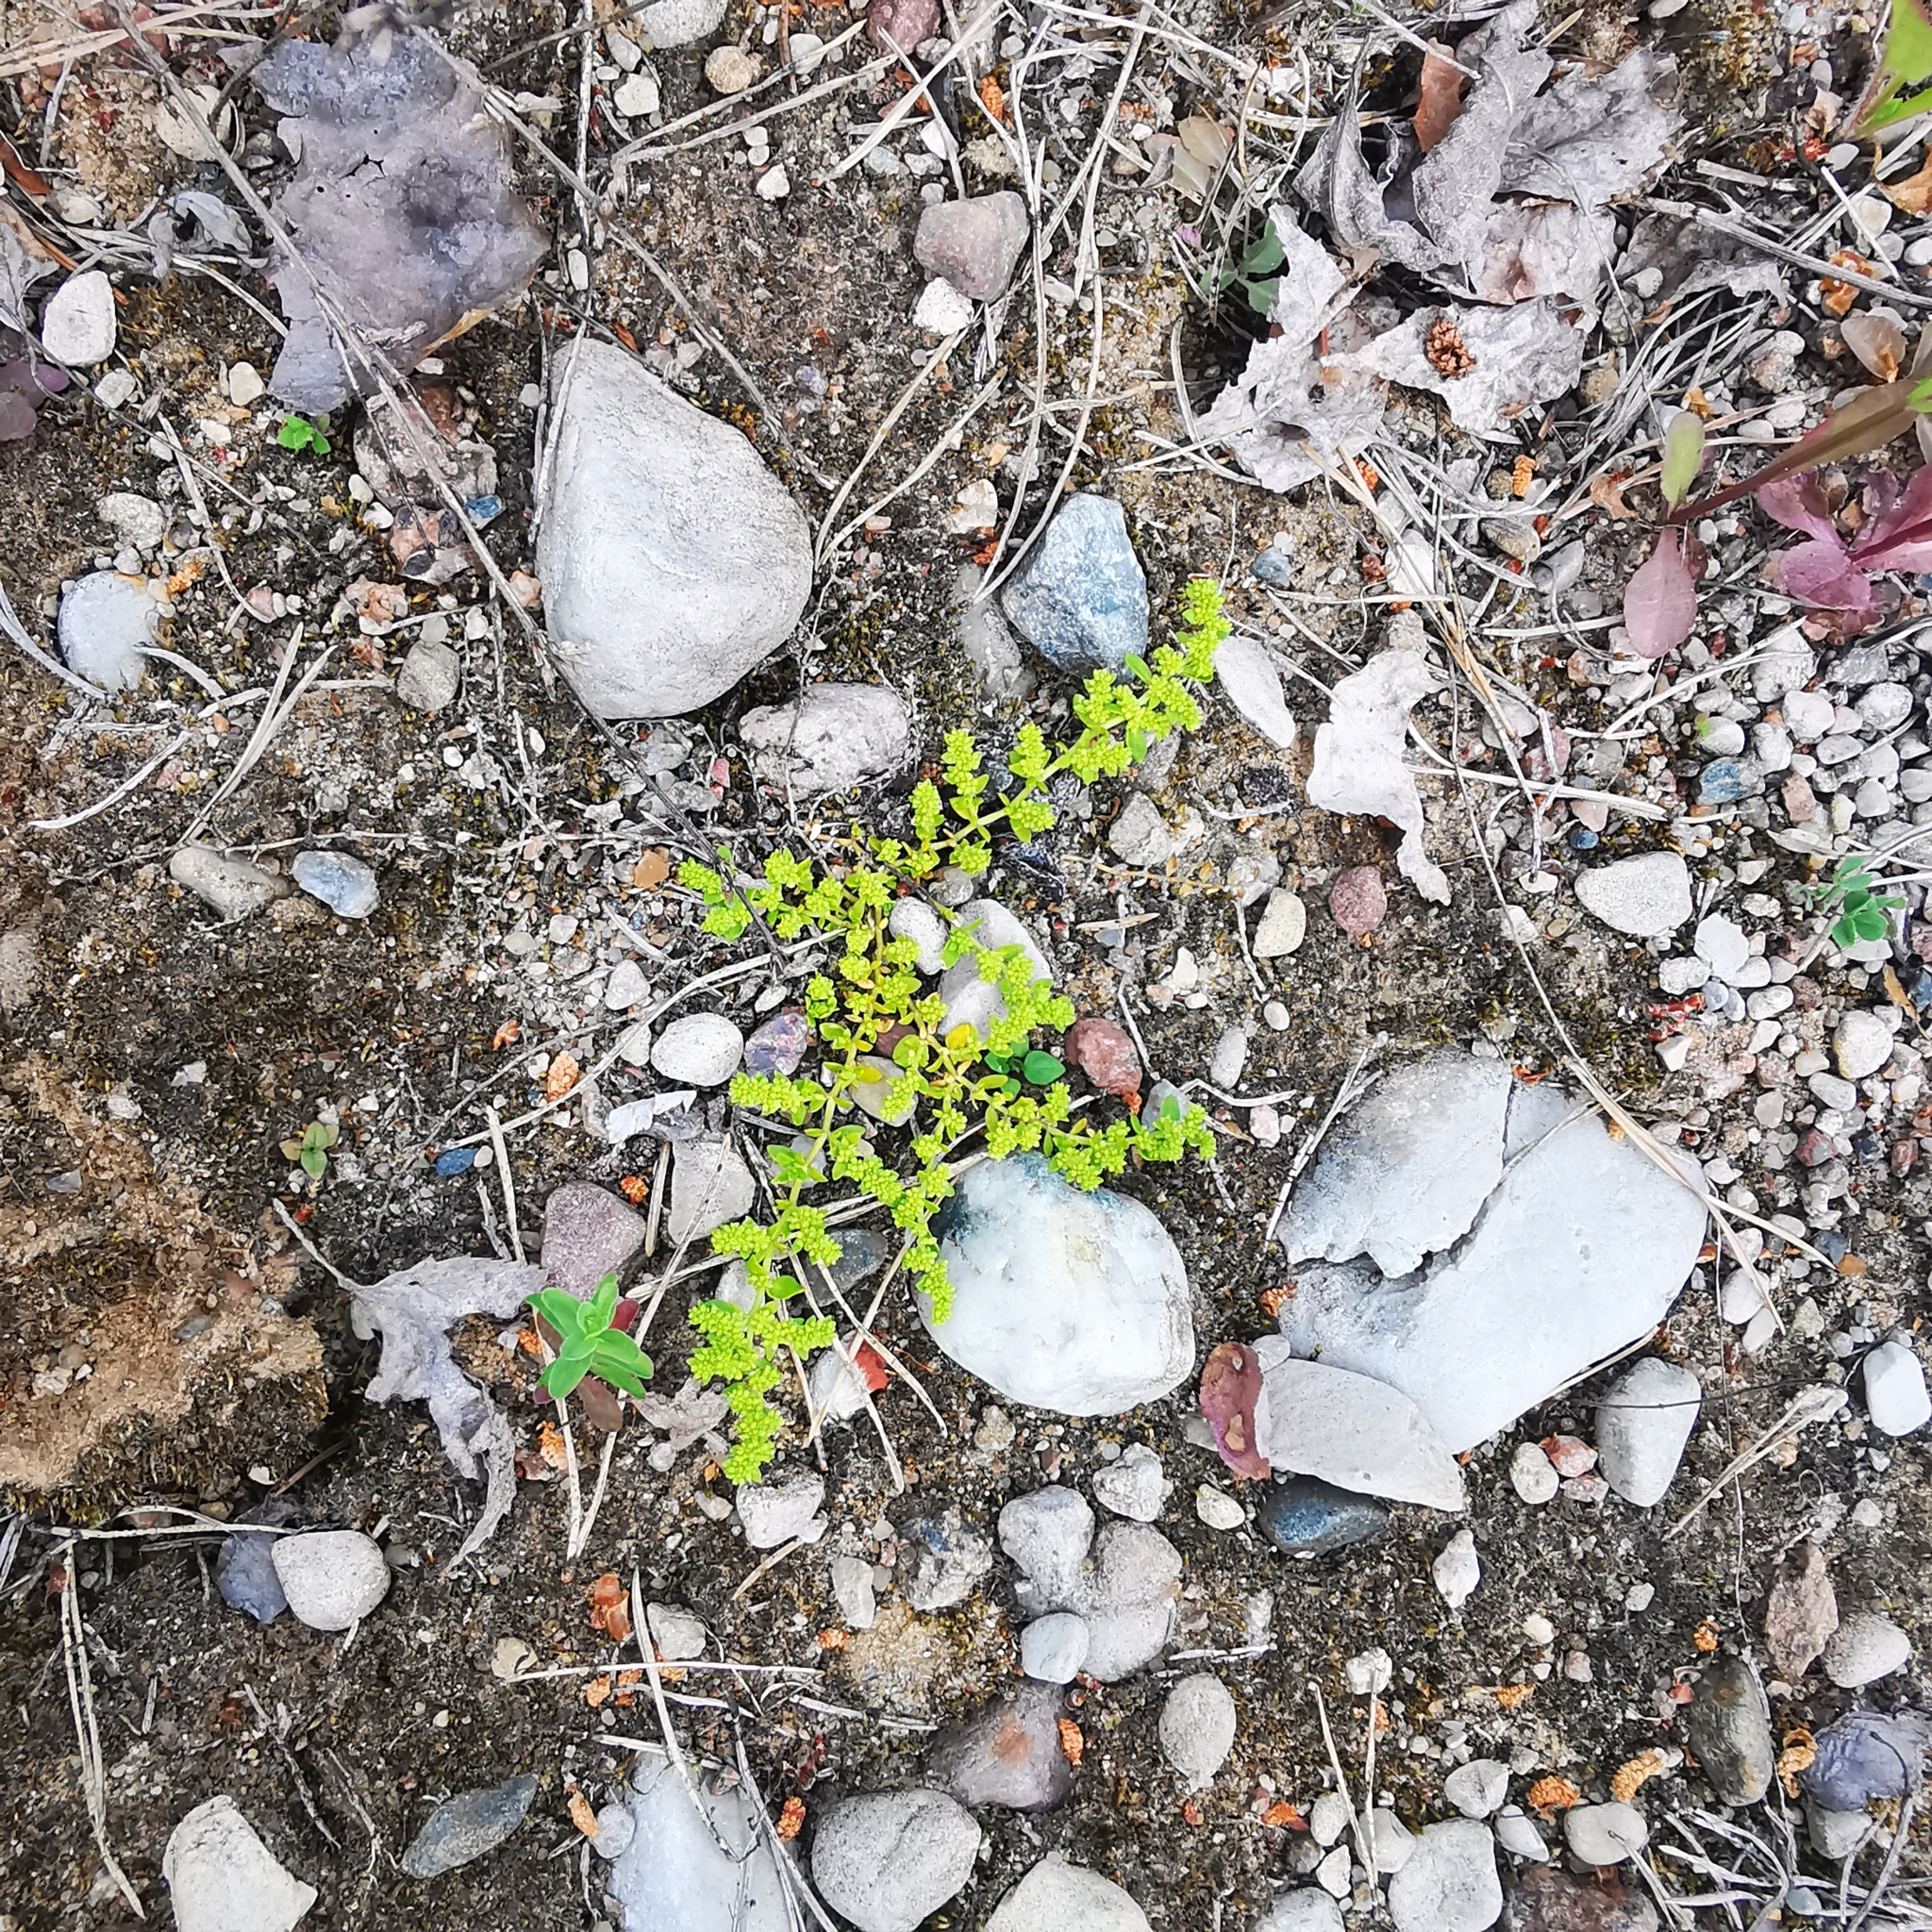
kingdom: Plantae
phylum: Tracheophyta
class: Magnoliopsida
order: Caryophyllales
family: Caryophyllaceae
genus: Herniaria
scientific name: Herniaria glabra
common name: Smooth rupturewort
